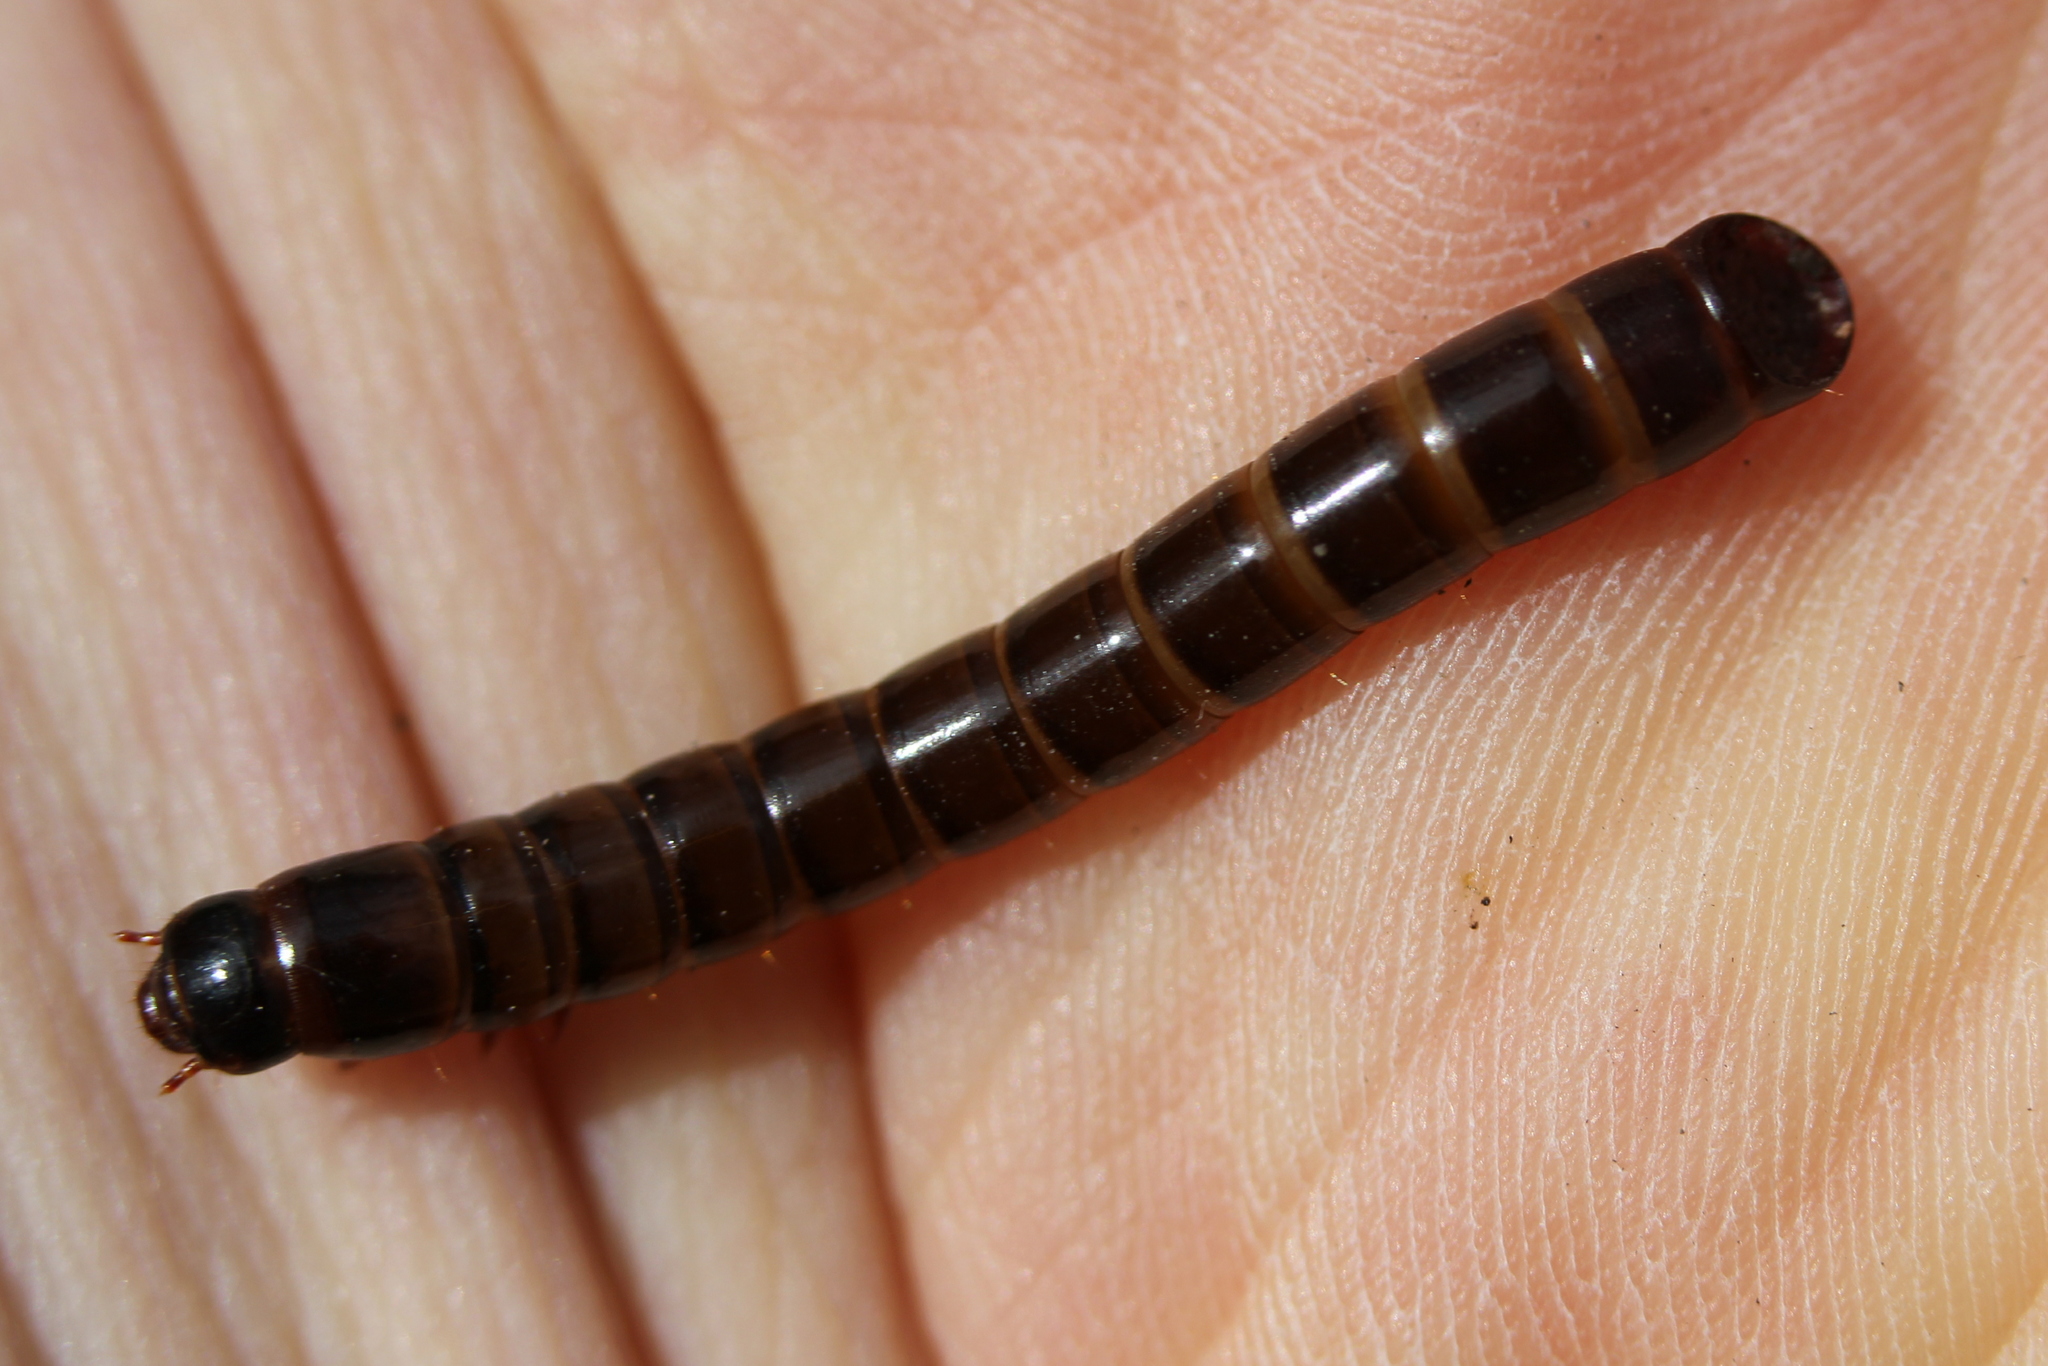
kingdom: Animalia
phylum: Arthropoda
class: Insecta
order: Coleoptera
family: Tenebrionidae
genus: Meracantha
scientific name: Meracantha contracta
